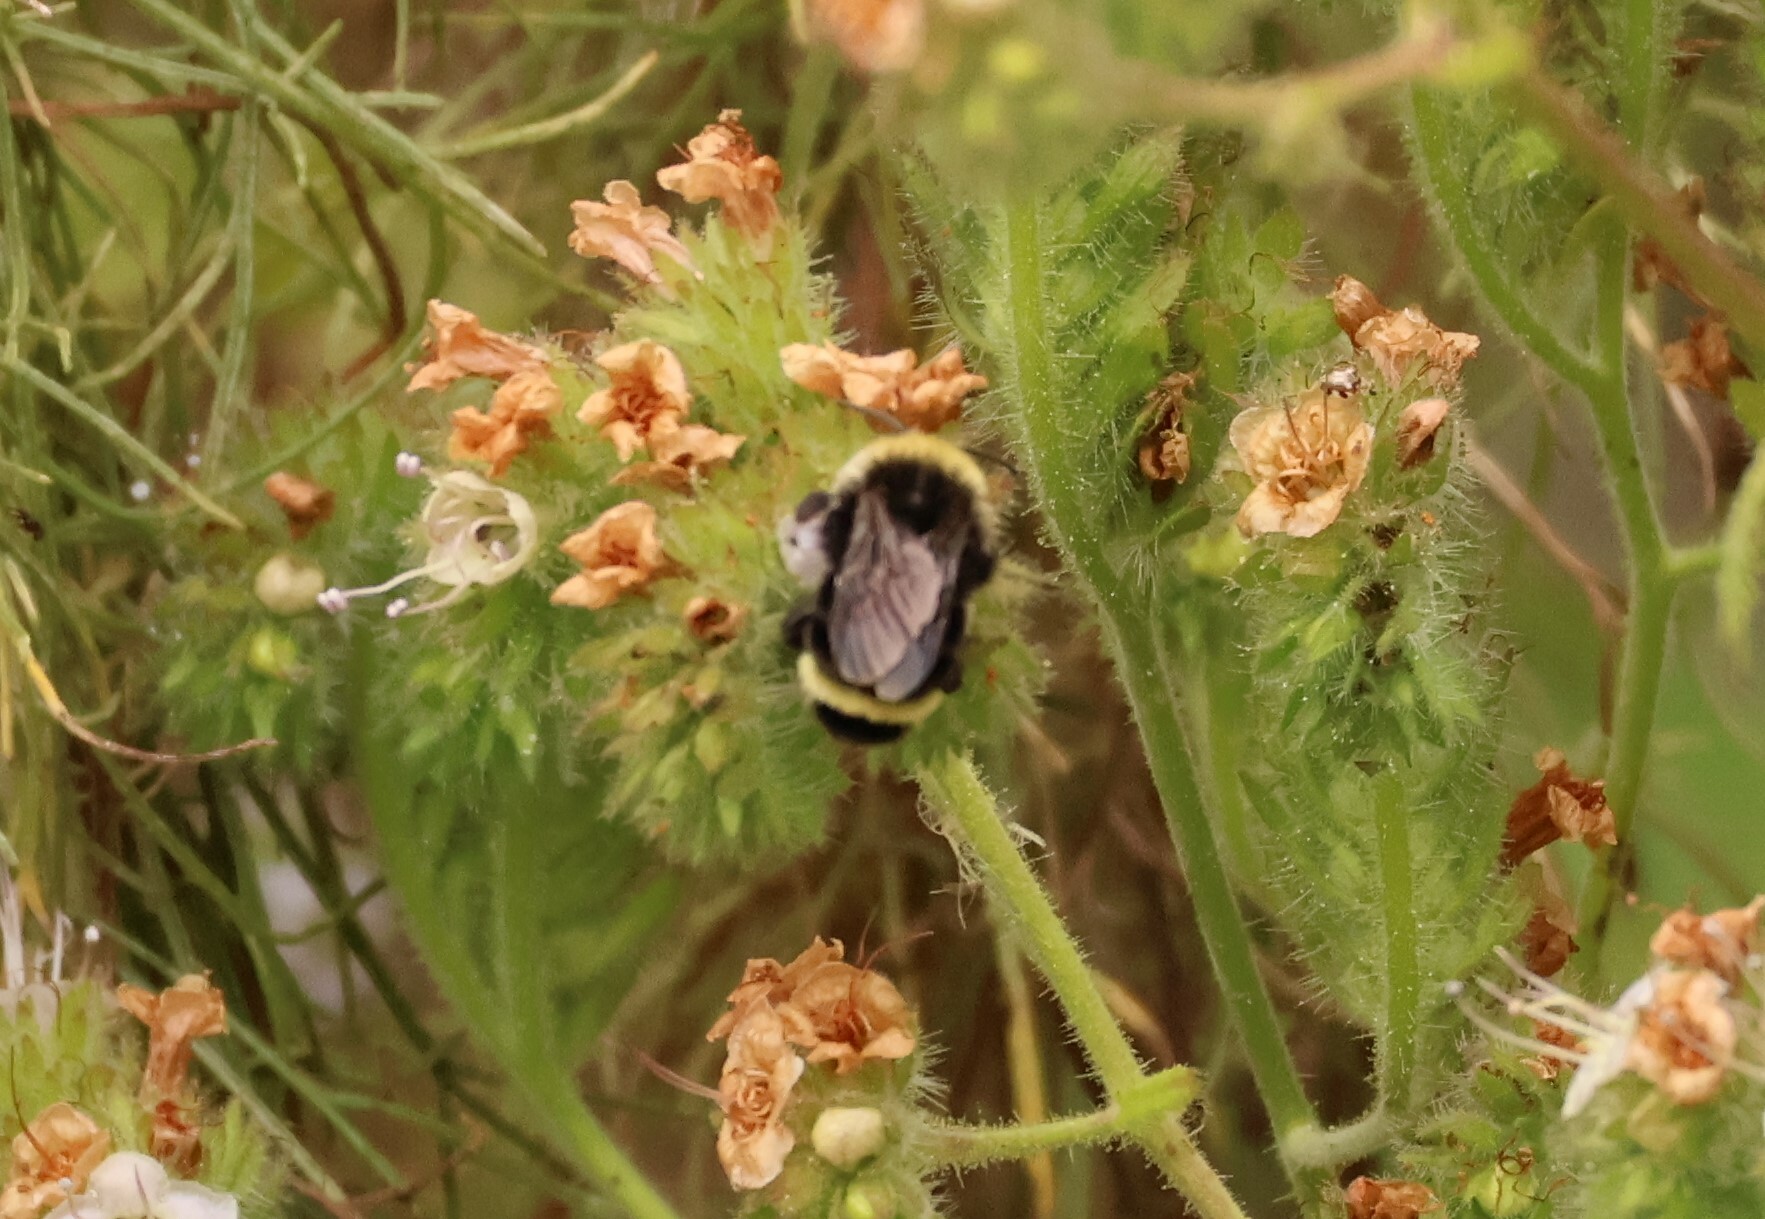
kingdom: Animalia
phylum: Arthropoda
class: Insecta
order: Hymenoptera
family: Apidae
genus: Bombus
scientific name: Bombus vosnesenskii
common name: Vosnesensky bumble bee
